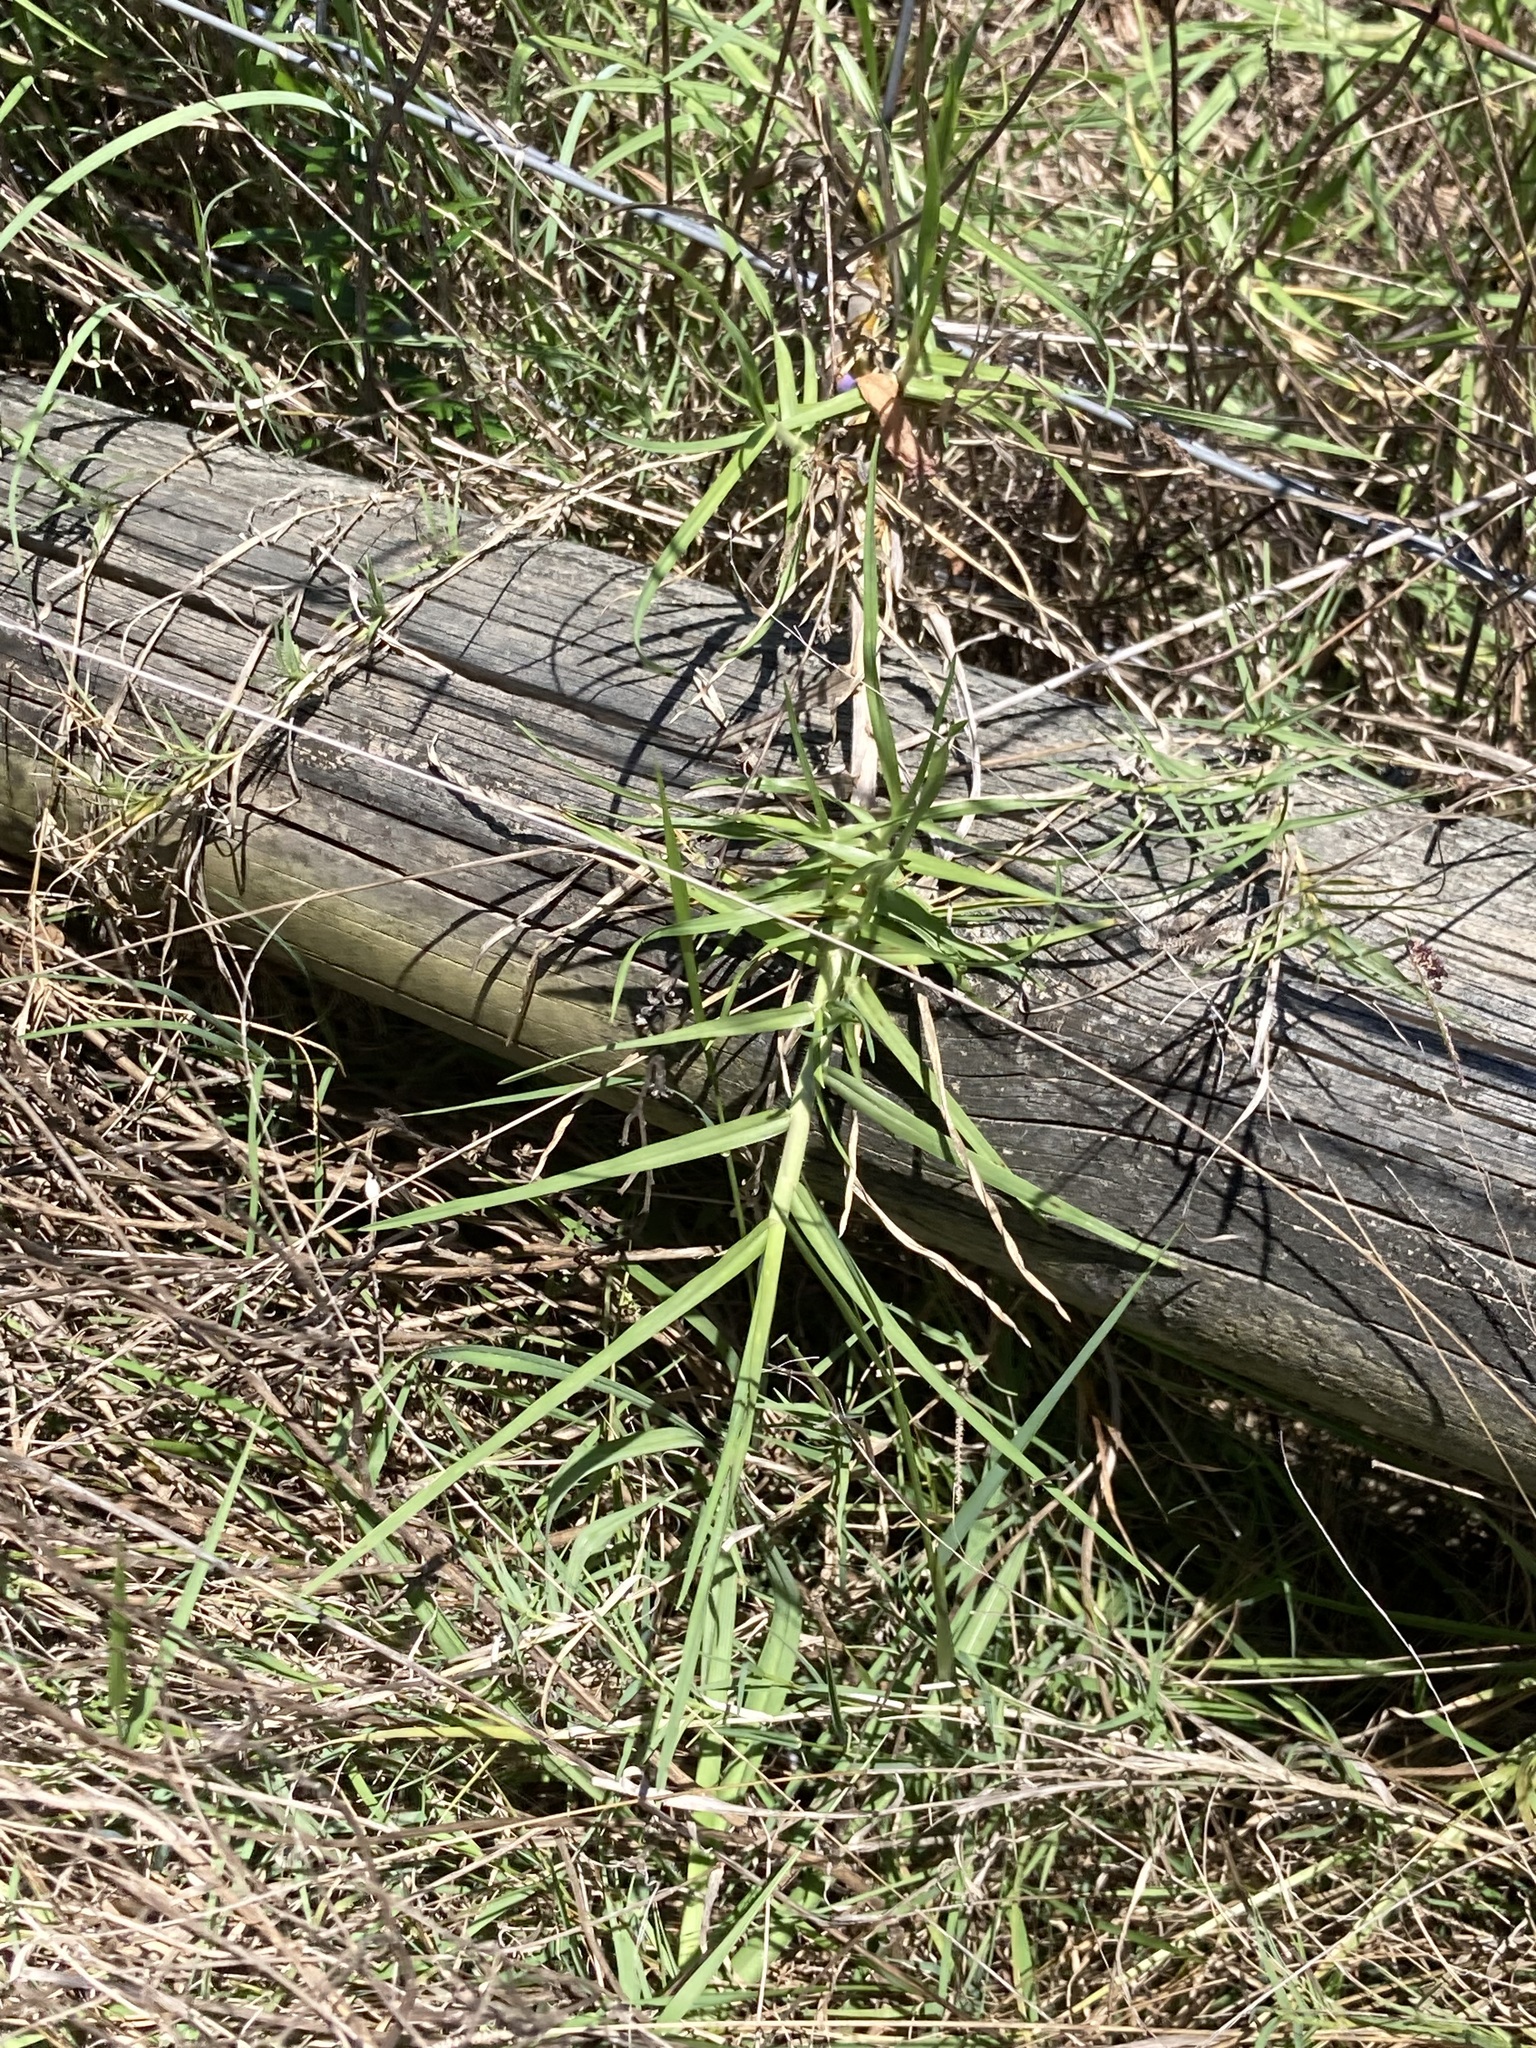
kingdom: Plantae
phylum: Tracheophyta
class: Liliopsida
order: Poales
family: Poaceae
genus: Cenchrus
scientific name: Cenchrus clandestinus
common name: Kikuyugrass
